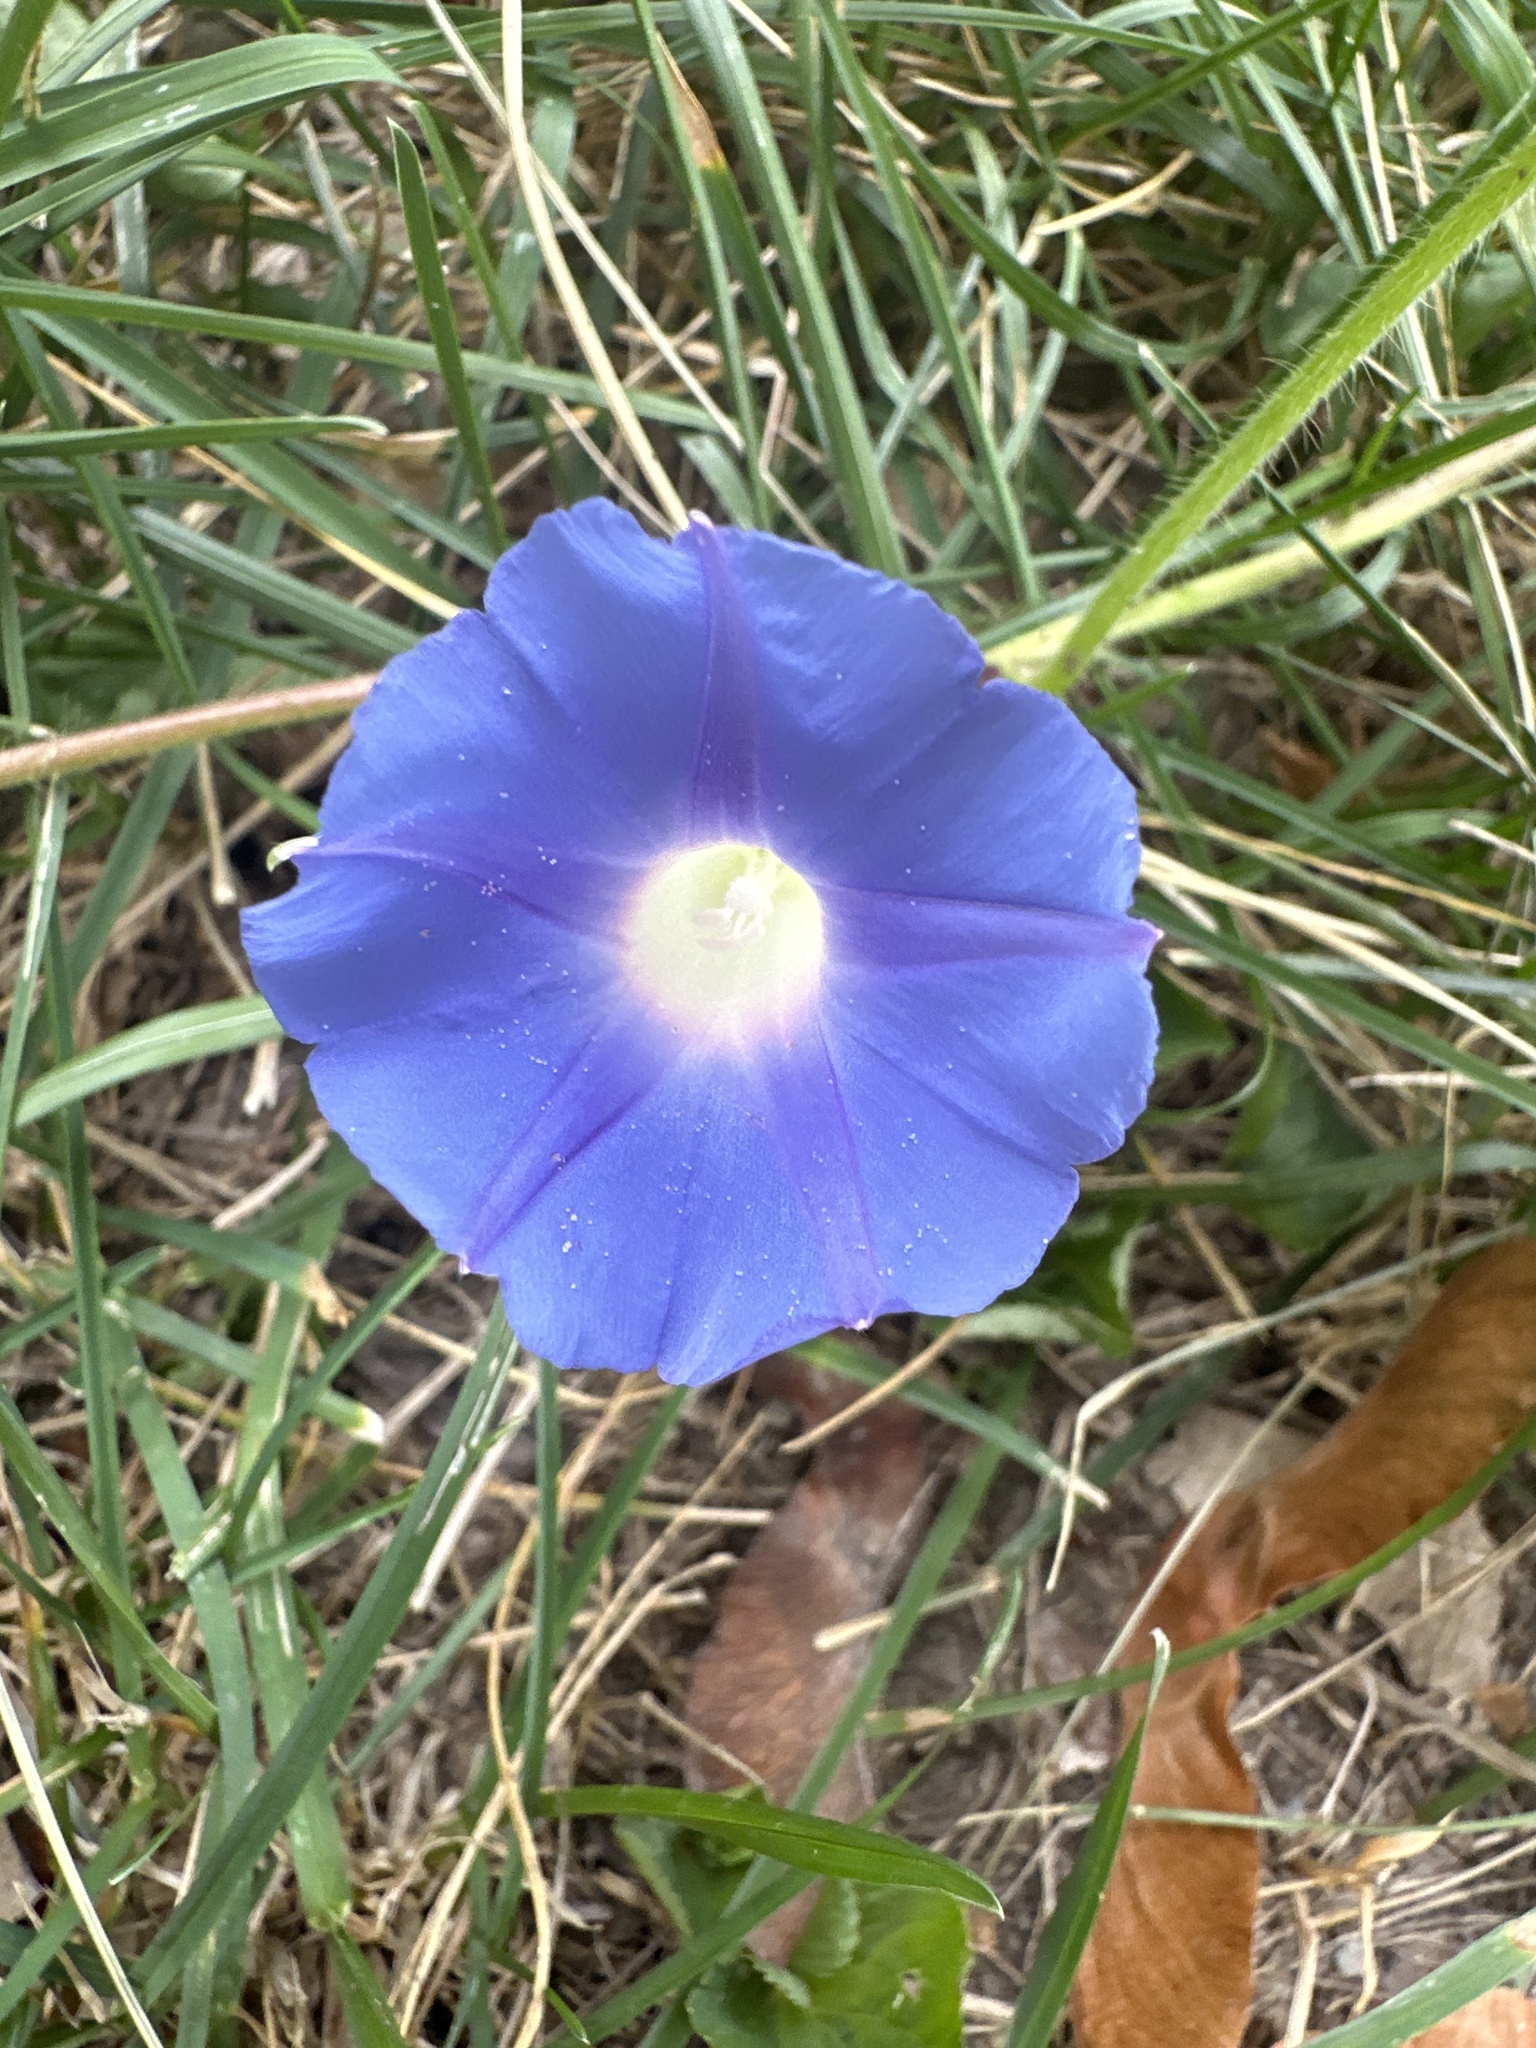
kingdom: Plantae
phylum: Tracheophyta
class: Magnoliopsida
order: Solanales
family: Convolvulaceae
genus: Ipomoea
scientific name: Ipomoea hederacea
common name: Ivy-leaved morning-glory
